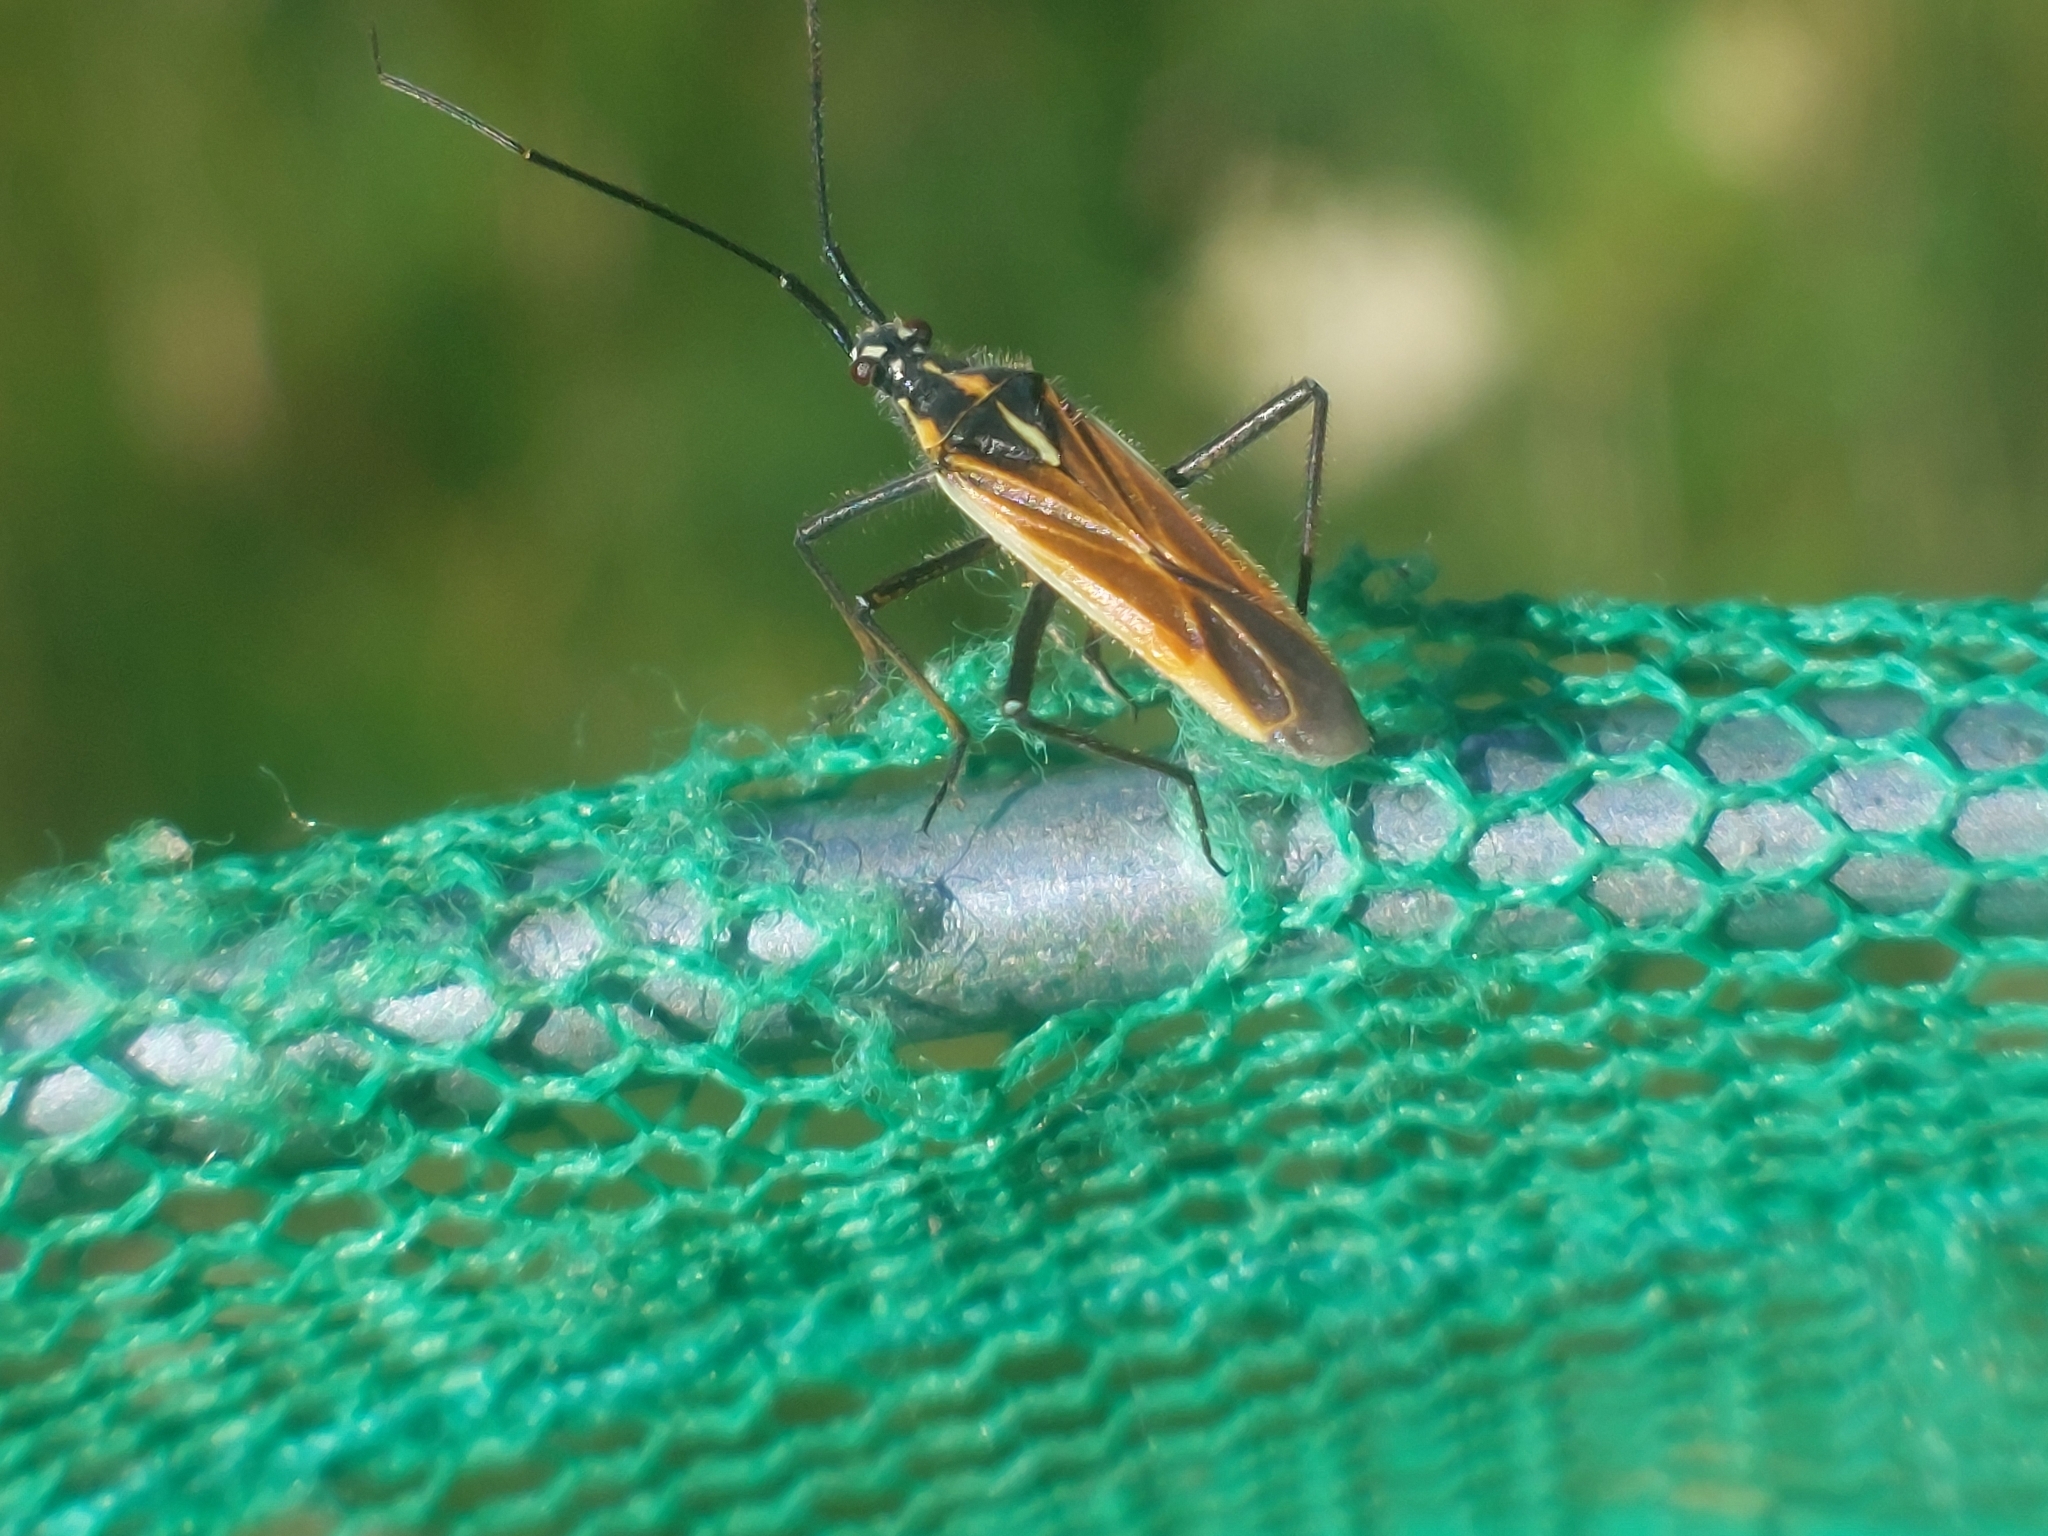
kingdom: Animalia
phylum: Arthropoda
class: Insecta
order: Hemiptera
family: Miridae
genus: Leptopterna
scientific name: Leptopterna dolabrata
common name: Meadow plant bug
